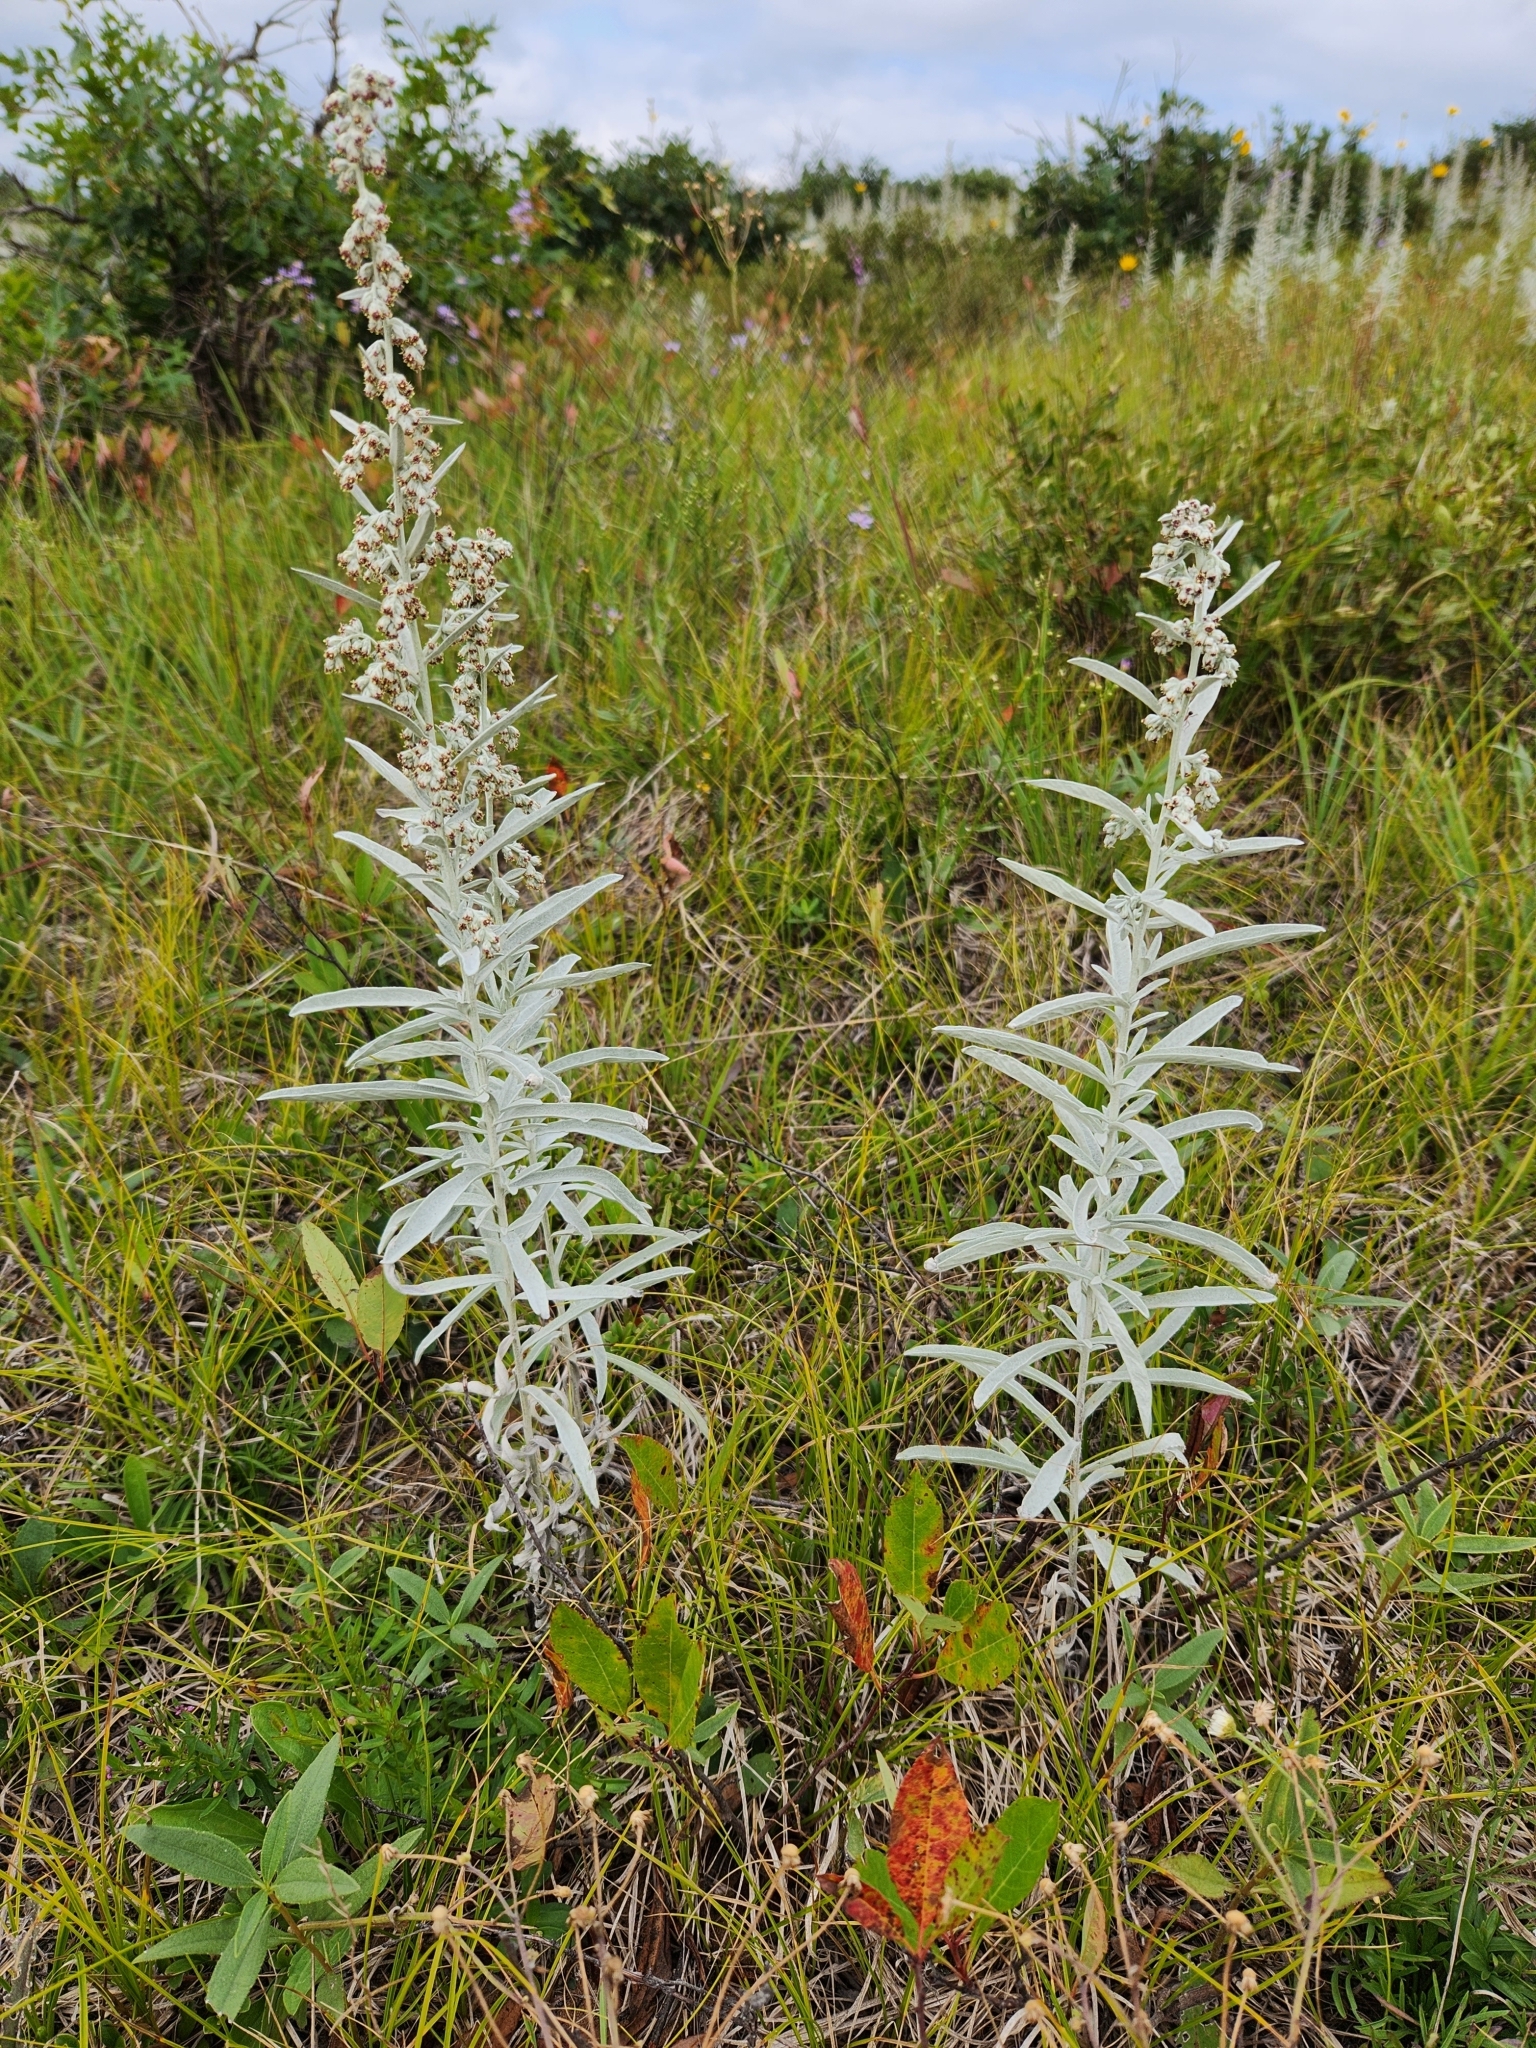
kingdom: Plantae
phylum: Tracheophyta
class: Magnoliopsida
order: Asterales
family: Asteraceae
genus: Artemisia
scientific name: Artemisia ludoviciana
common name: Western mugwort
